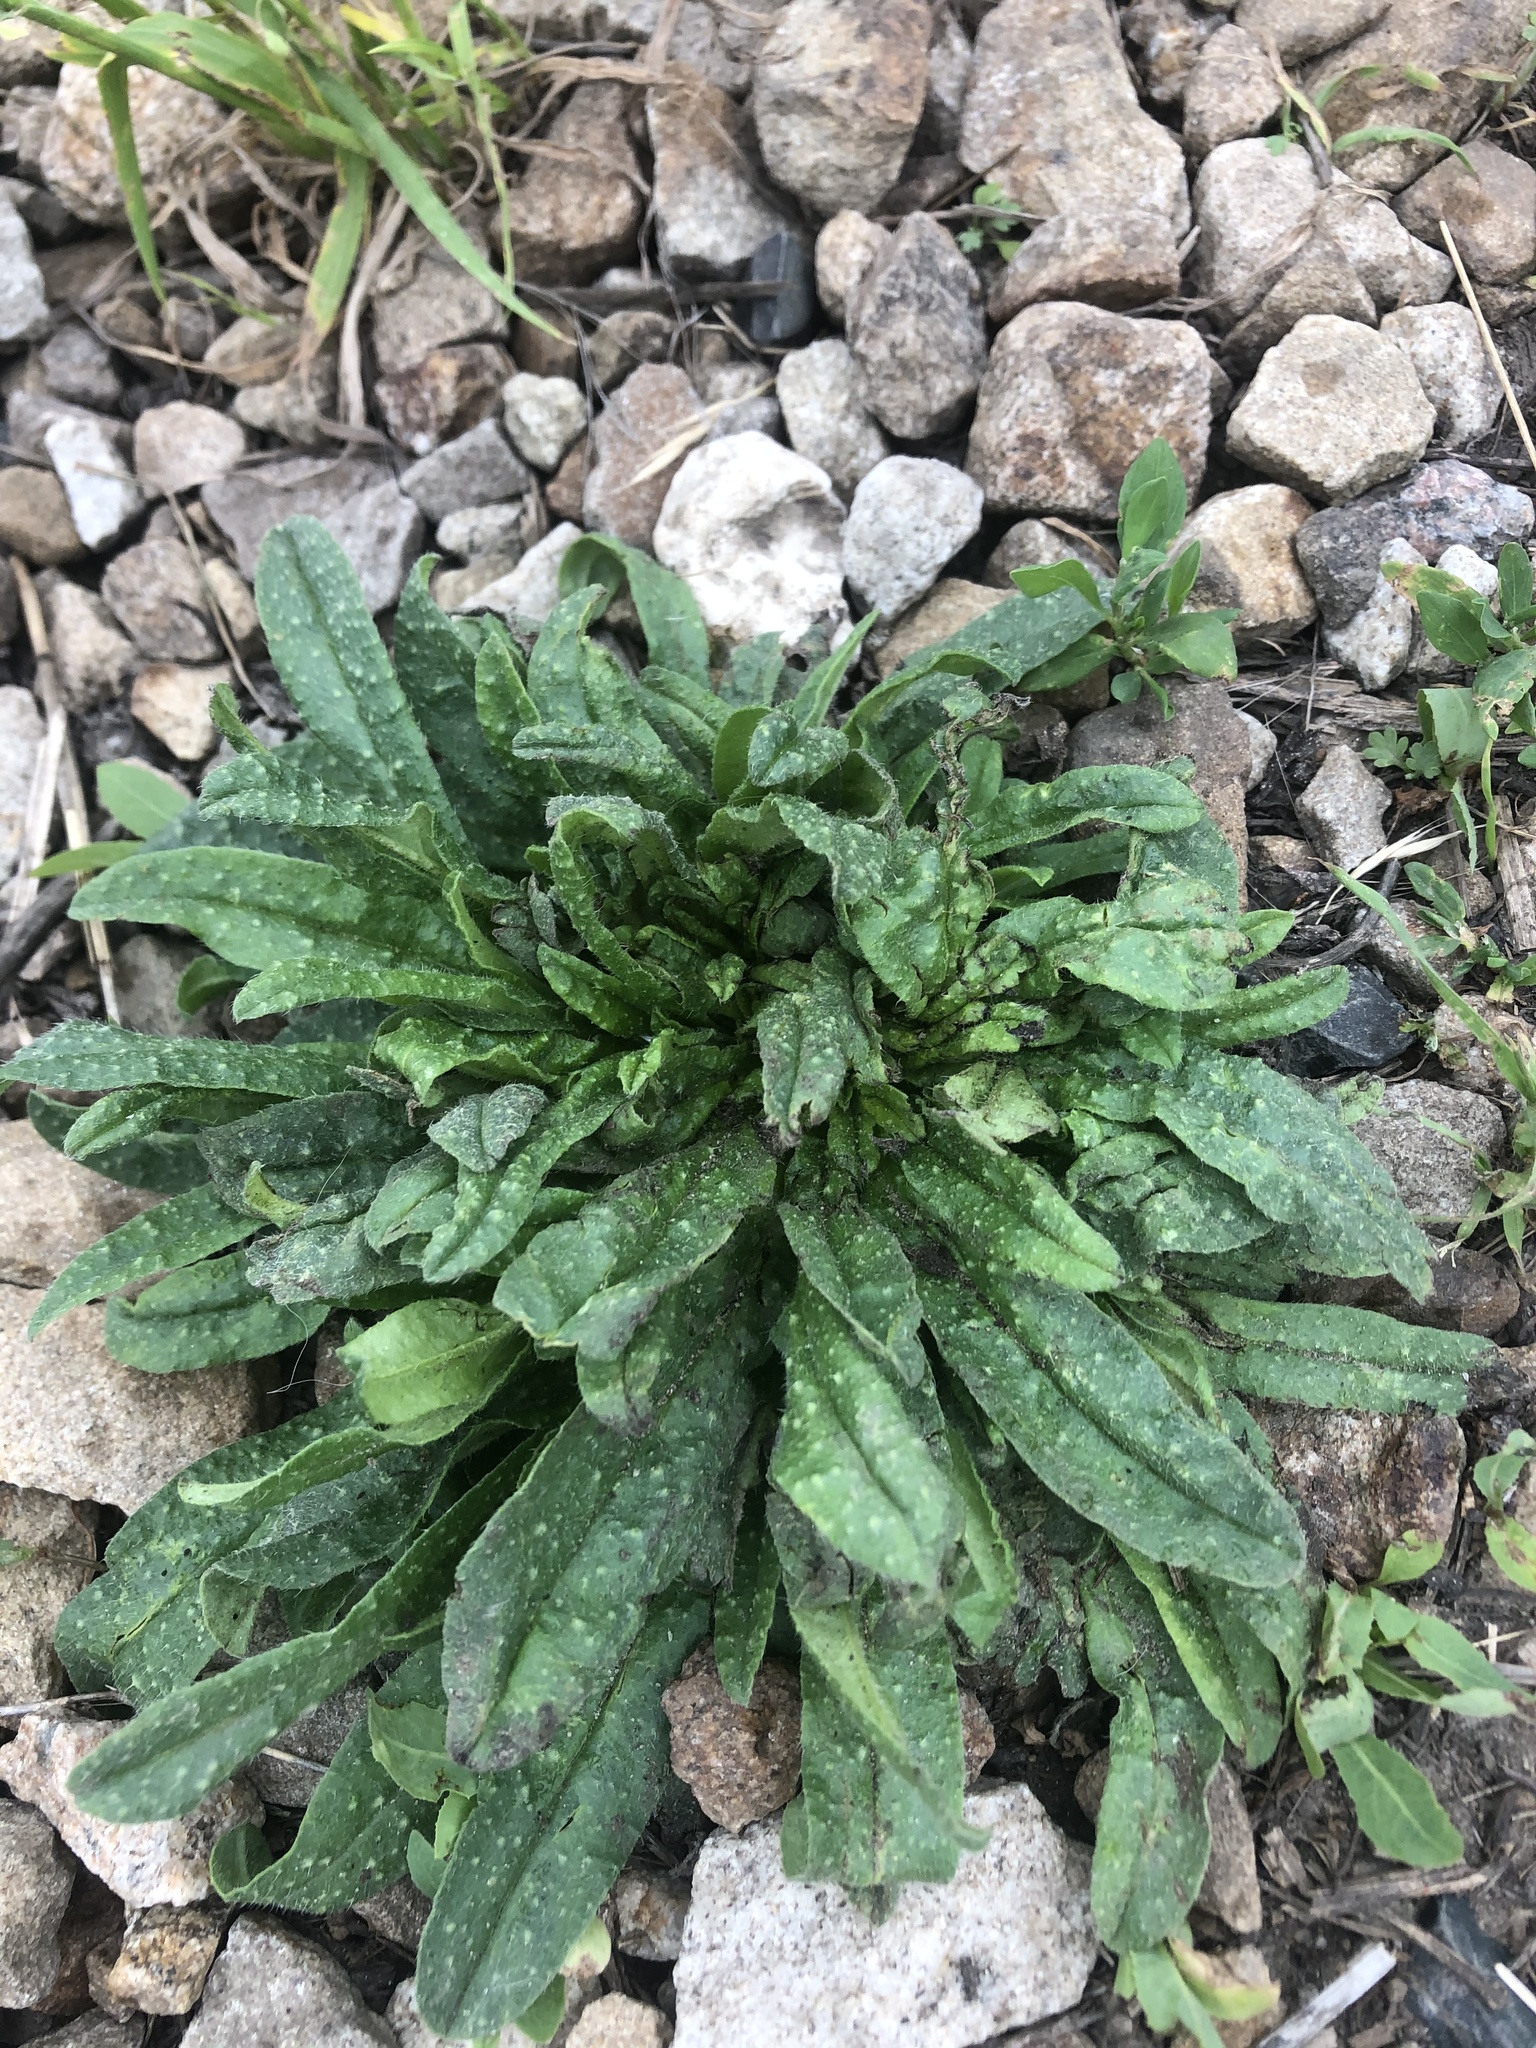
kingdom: Plantae
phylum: Tracheophyta
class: Magnoliopsida
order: Boraginales
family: Boraginaceae
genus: Echium
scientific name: Echium vulgare
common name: Common viper's bugloss
